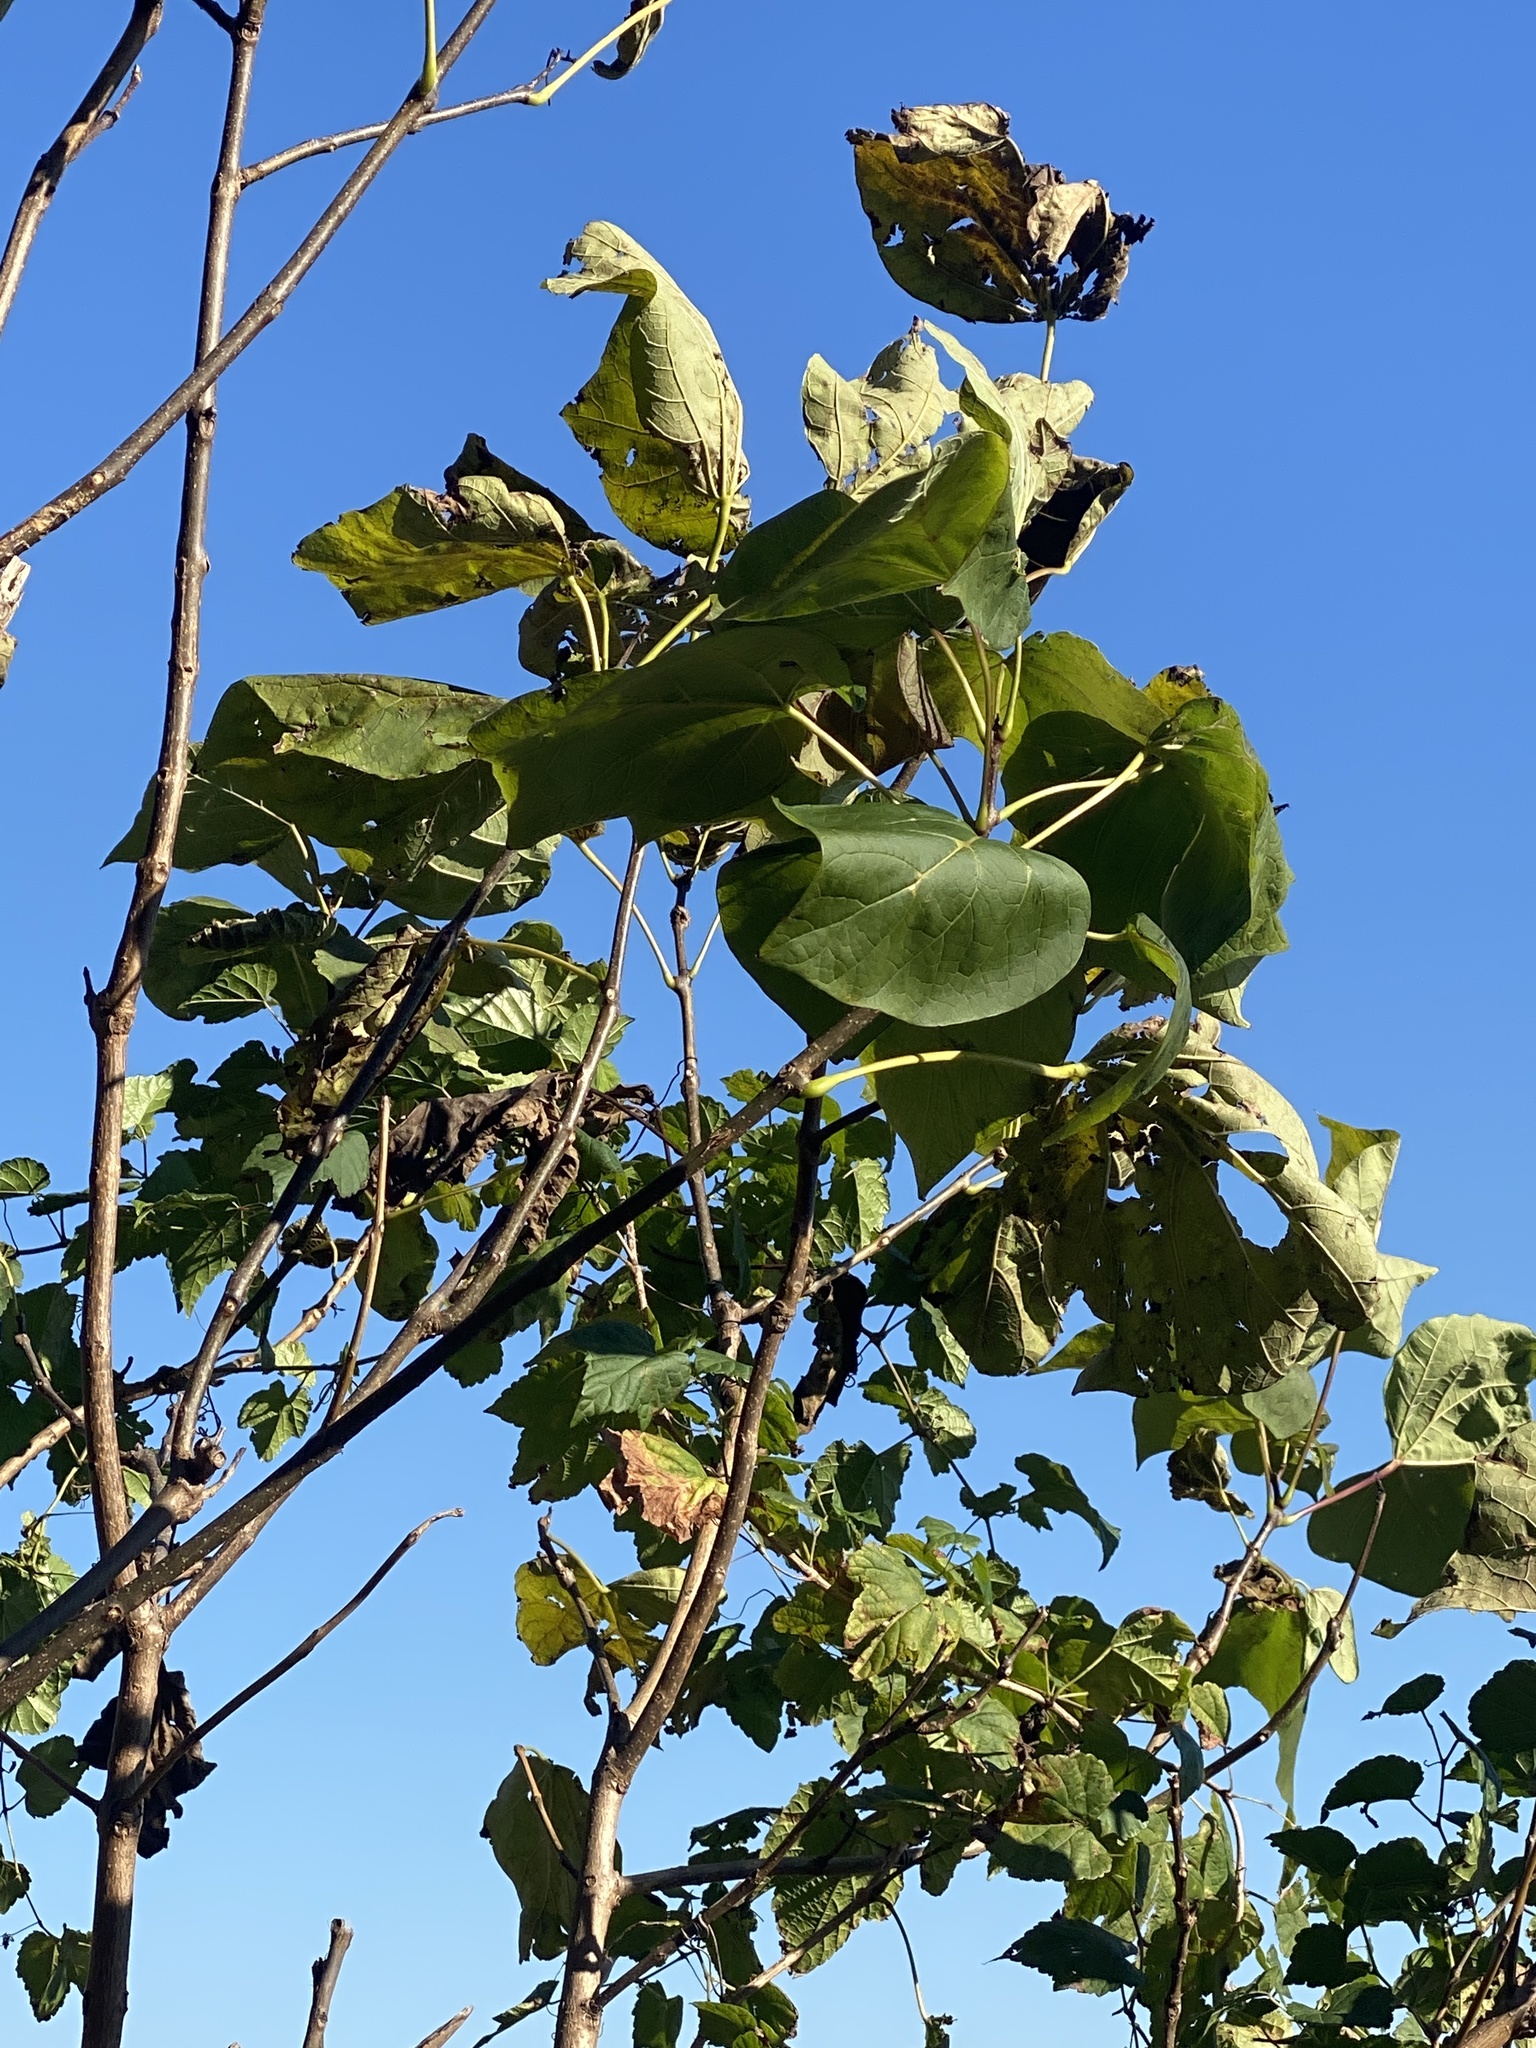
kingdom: Plantae
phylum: Tracheophyta
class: Magnoliopsida
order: Lamiales
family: Paulowniaceae
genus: Paulownia
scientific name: Paulownia tomentosa
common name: Foxglove-tree
